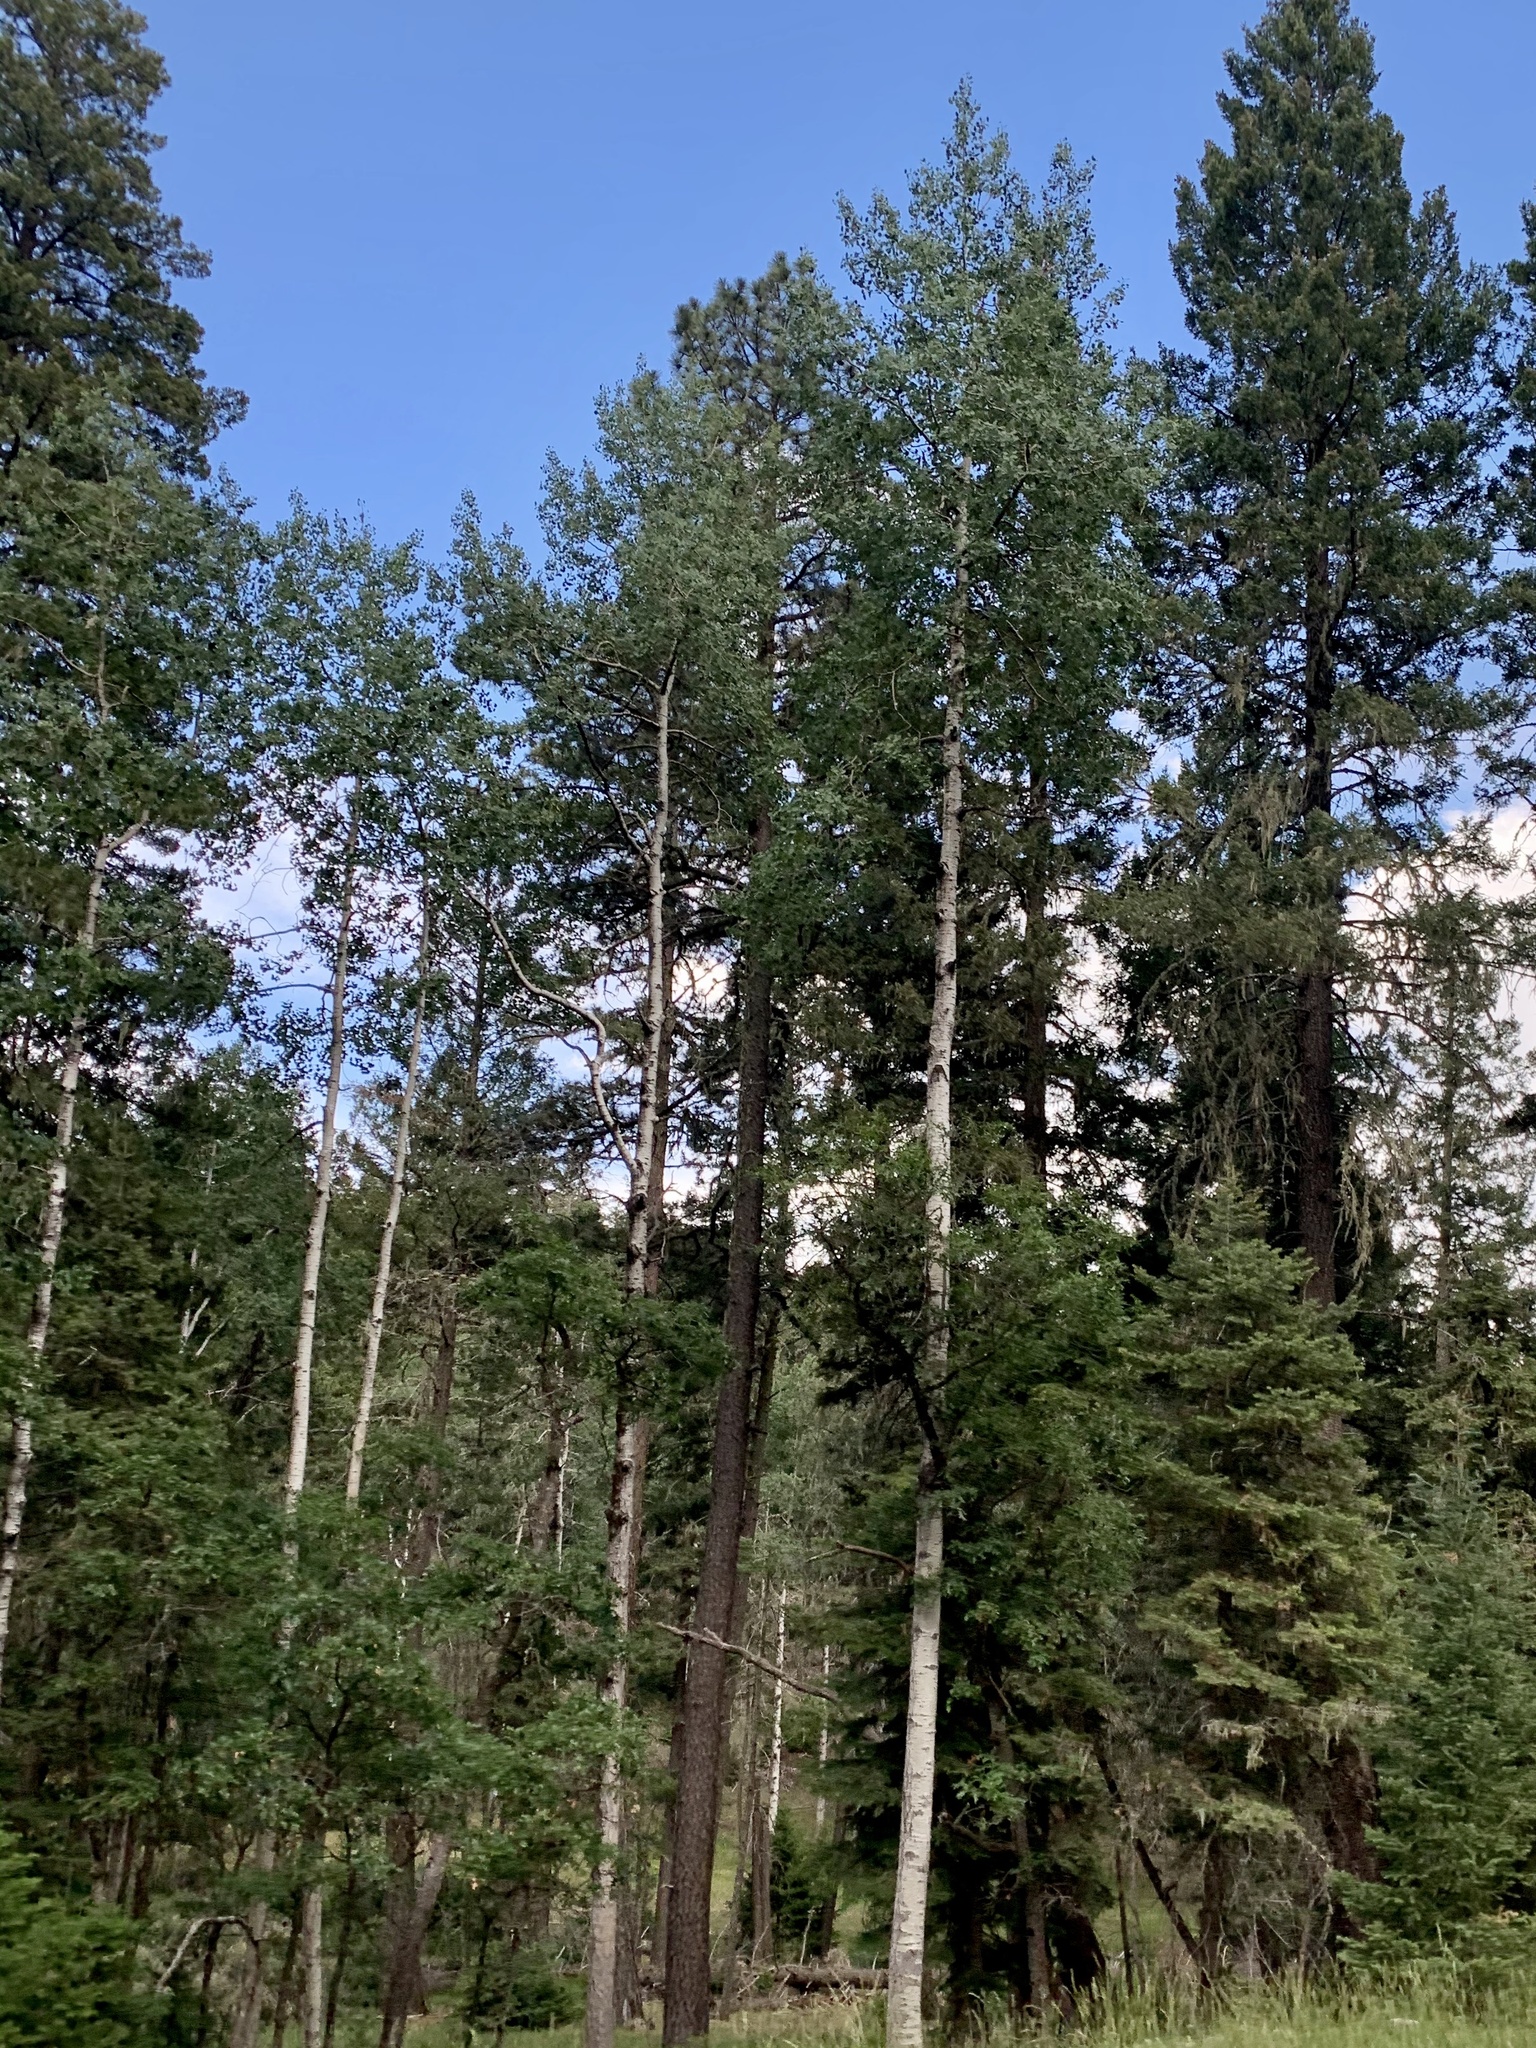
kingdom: Plantae
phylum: Tracheophyta
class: Magnoliopsida
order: Malpighiales
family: Salicaceae
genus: Populus
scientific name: Populus tremuloides
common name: Quaking aspen
